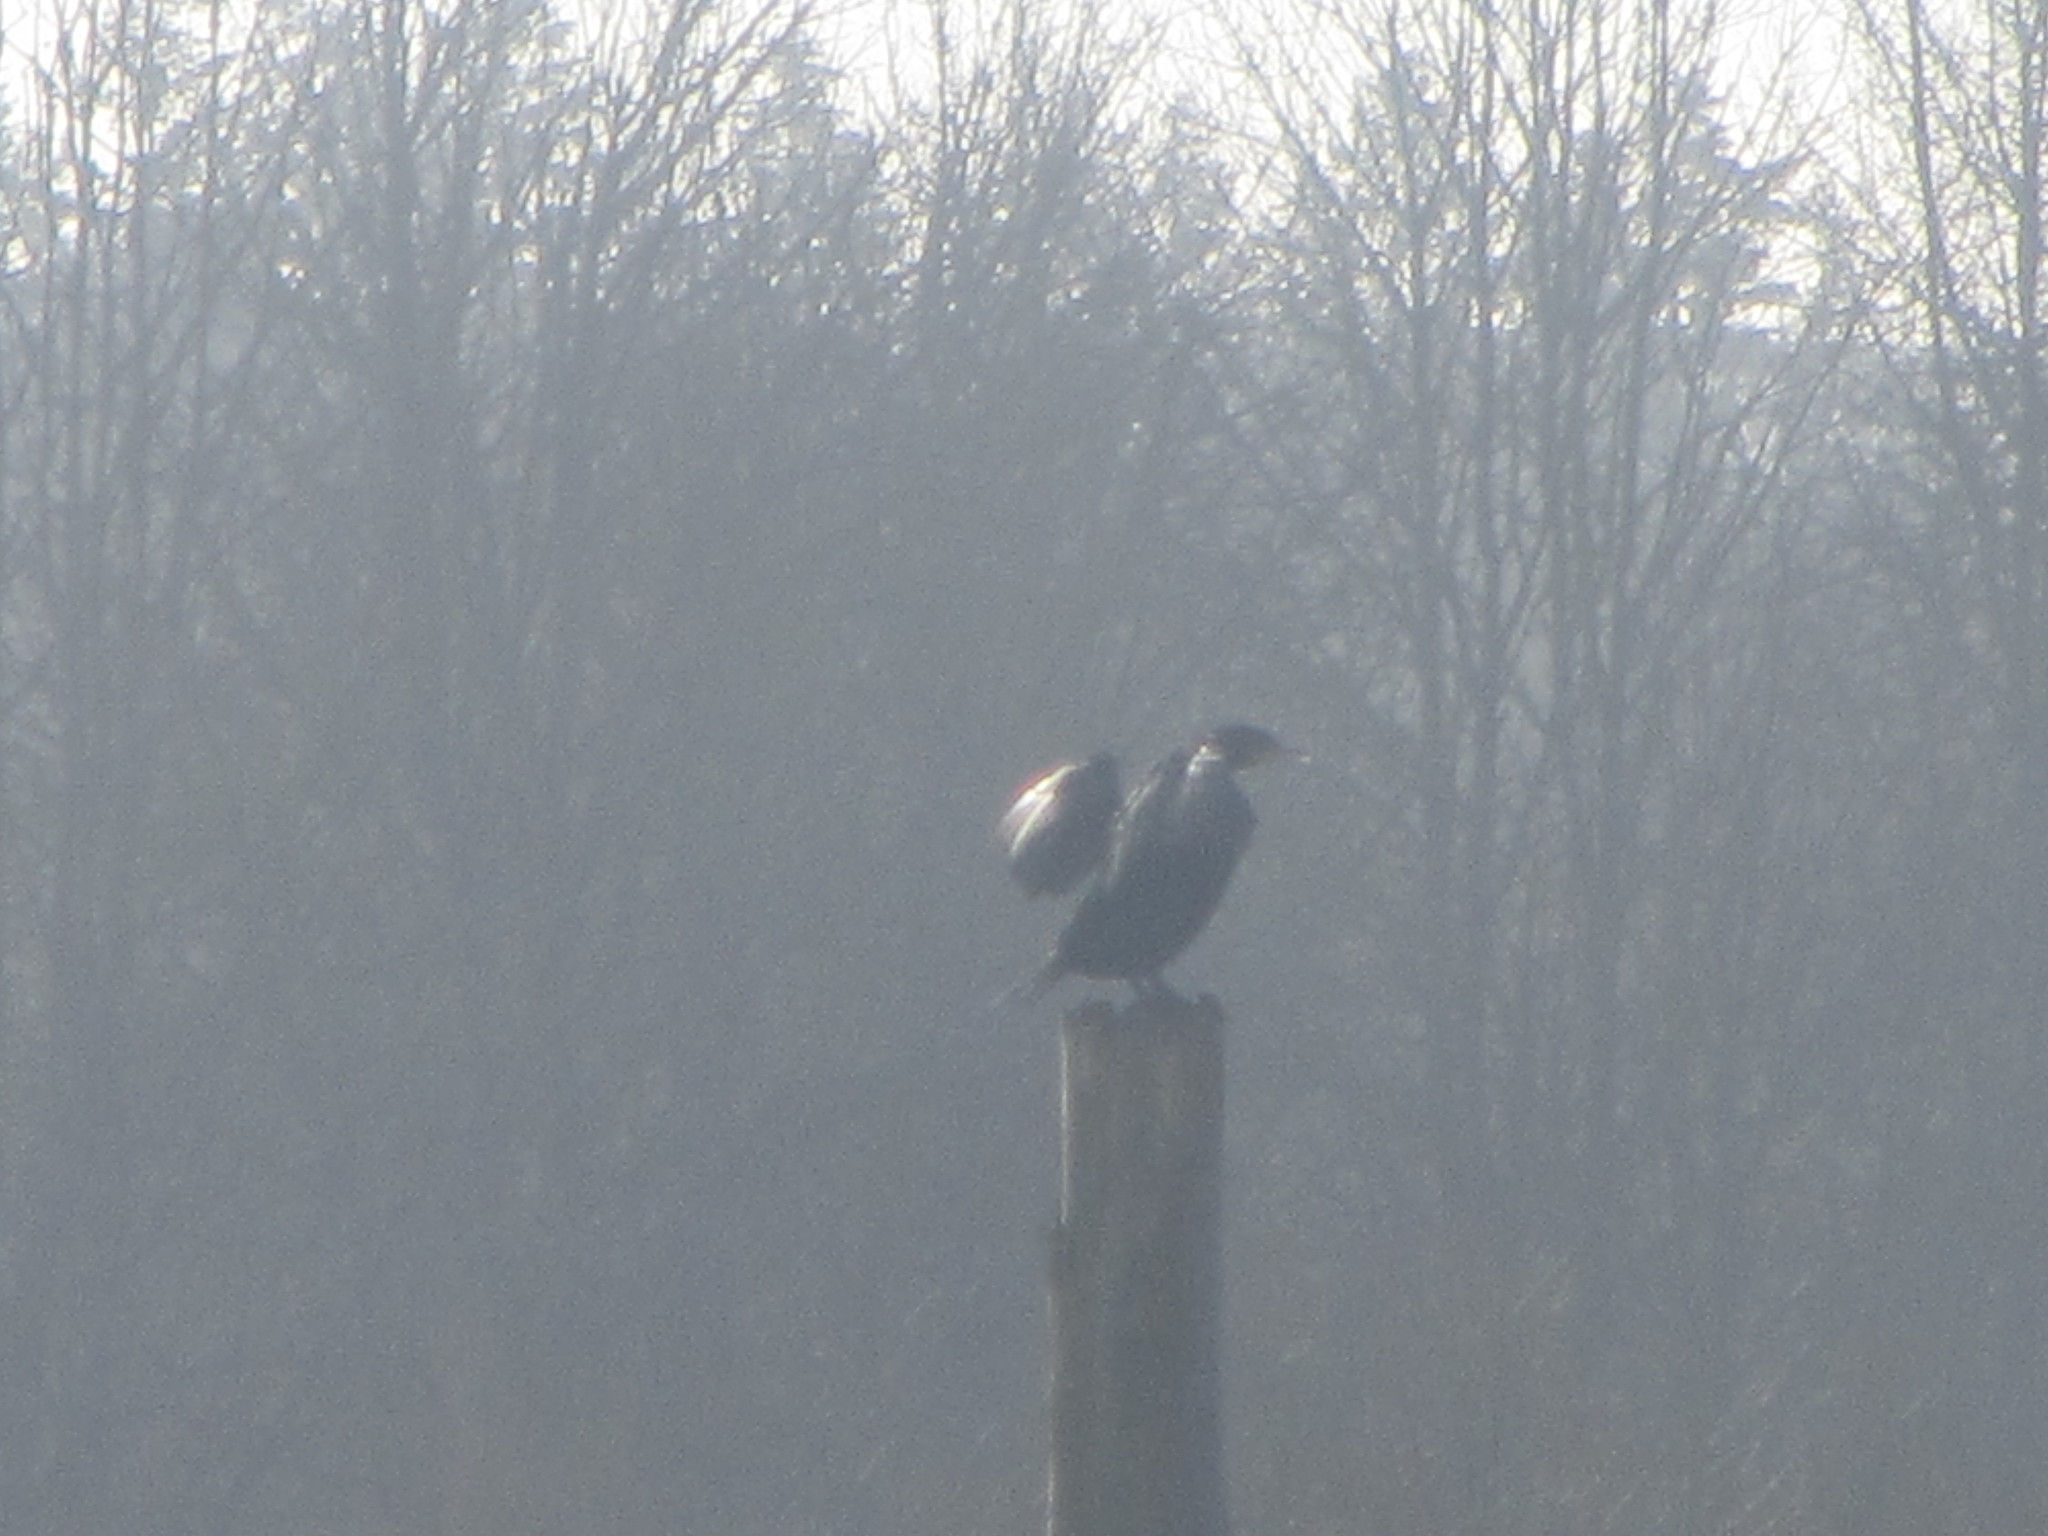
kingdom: Animalia
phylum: Chordata
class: Aves
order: Suliformes
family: Phalacrocoracidae
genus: Phalacrocorax
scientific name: Phalacrocorax auritus
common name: Double-crested cormorant
